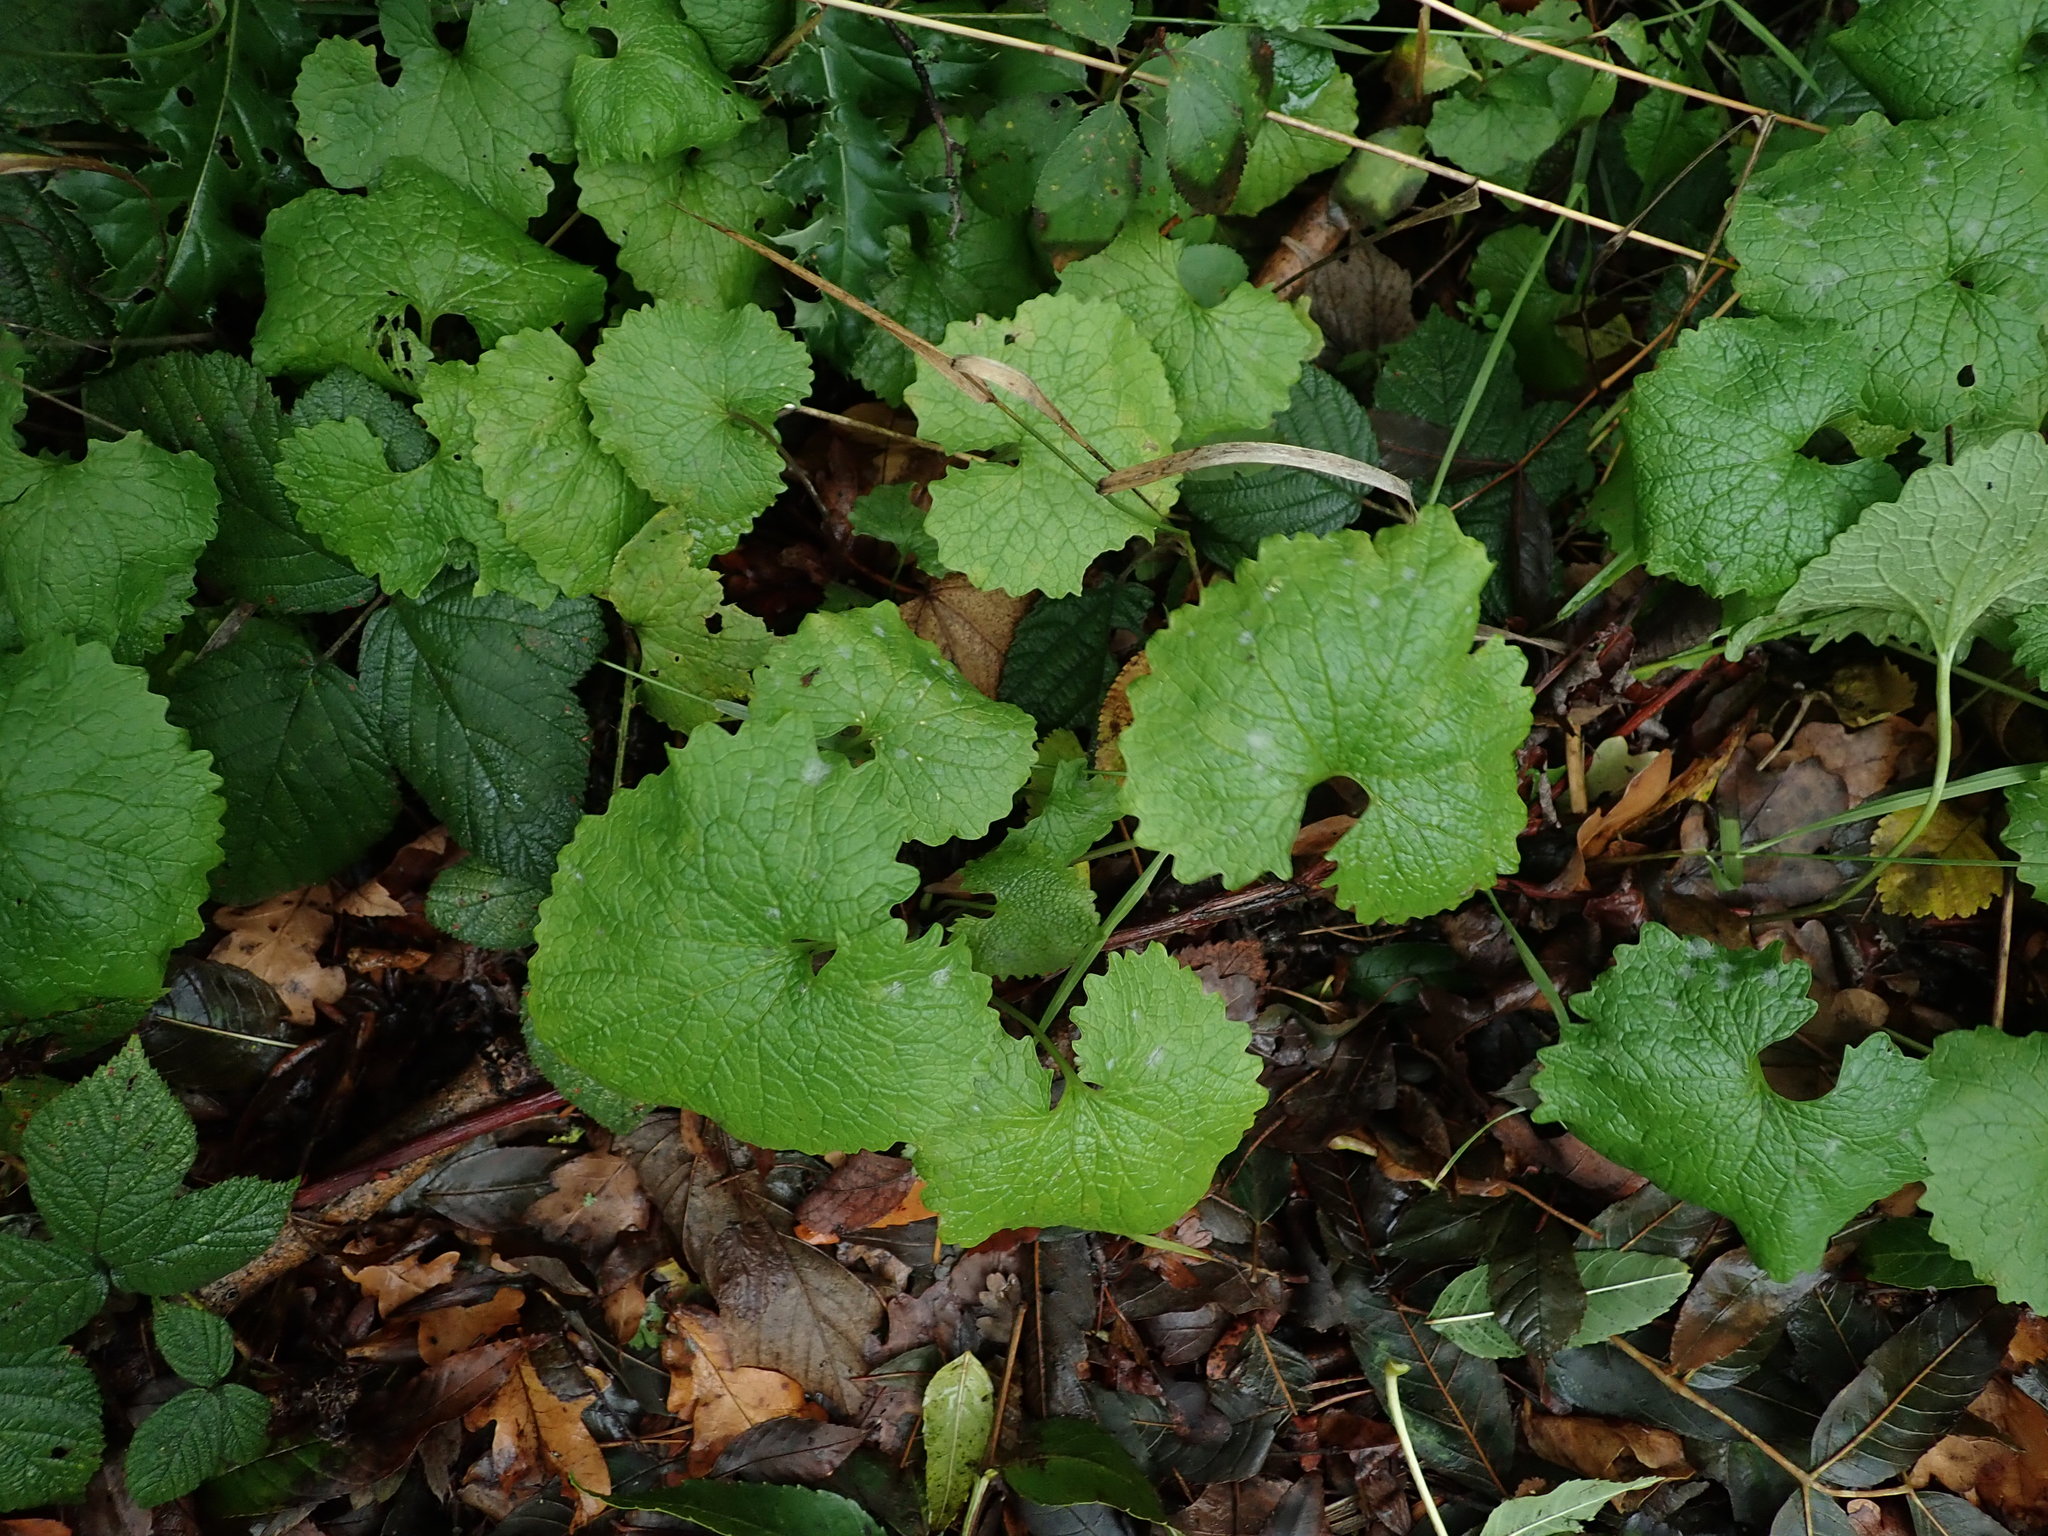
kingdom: Plantae
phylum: Tracheophyta
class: Magnoliopsida
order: Brassicales
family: Brassicaceae
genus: Alliaria
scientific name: Alliaria petiolata
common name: Garlic mustard
